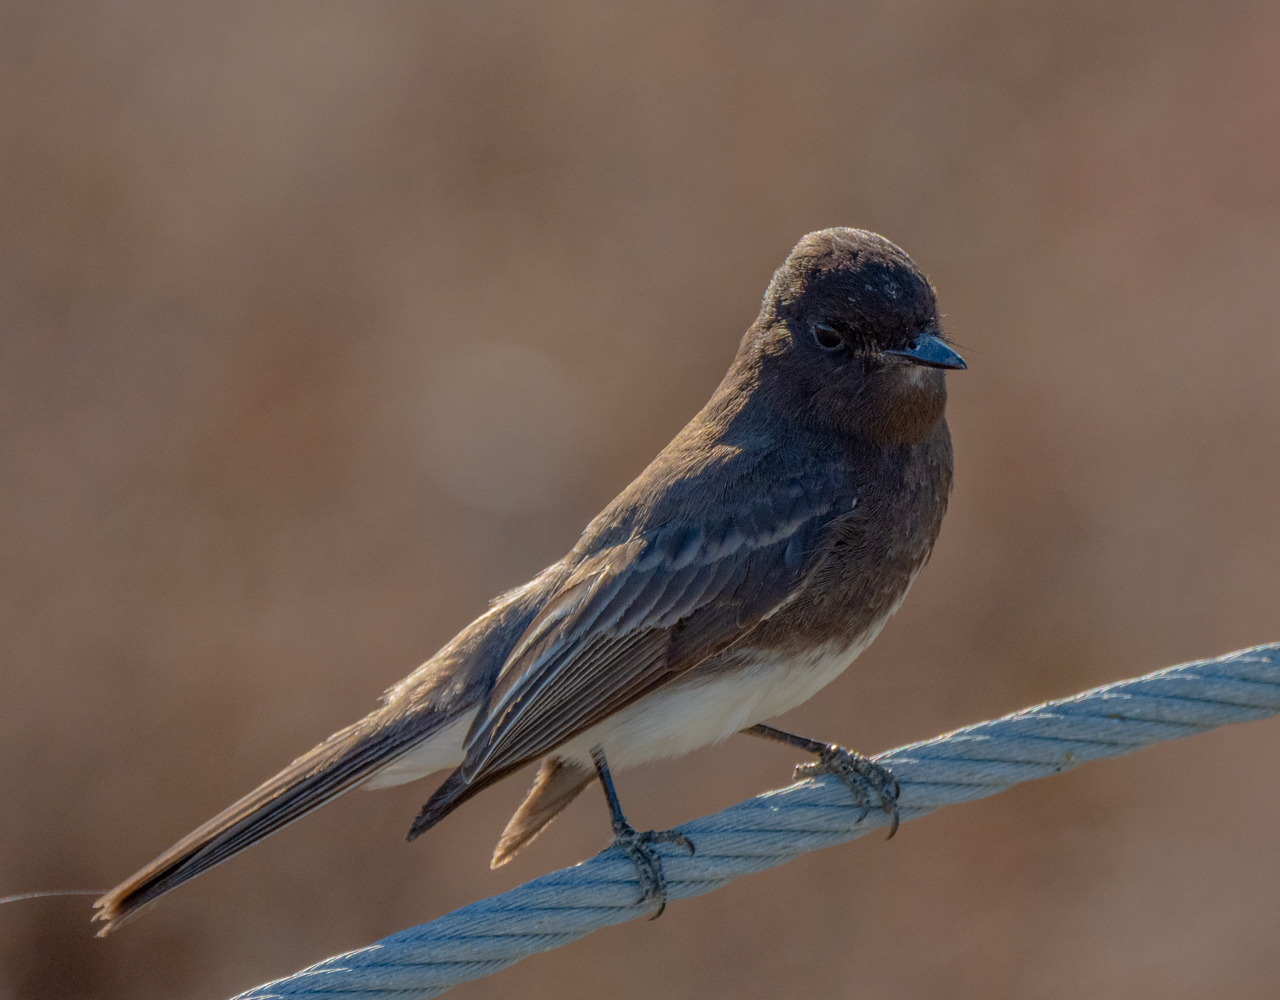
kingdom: Animalia
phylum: Chordata
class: Aves
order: Passeriformes
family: Tyrannidae
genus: Sayornis
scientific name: Sayornis nigricans
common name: Black phoebe
